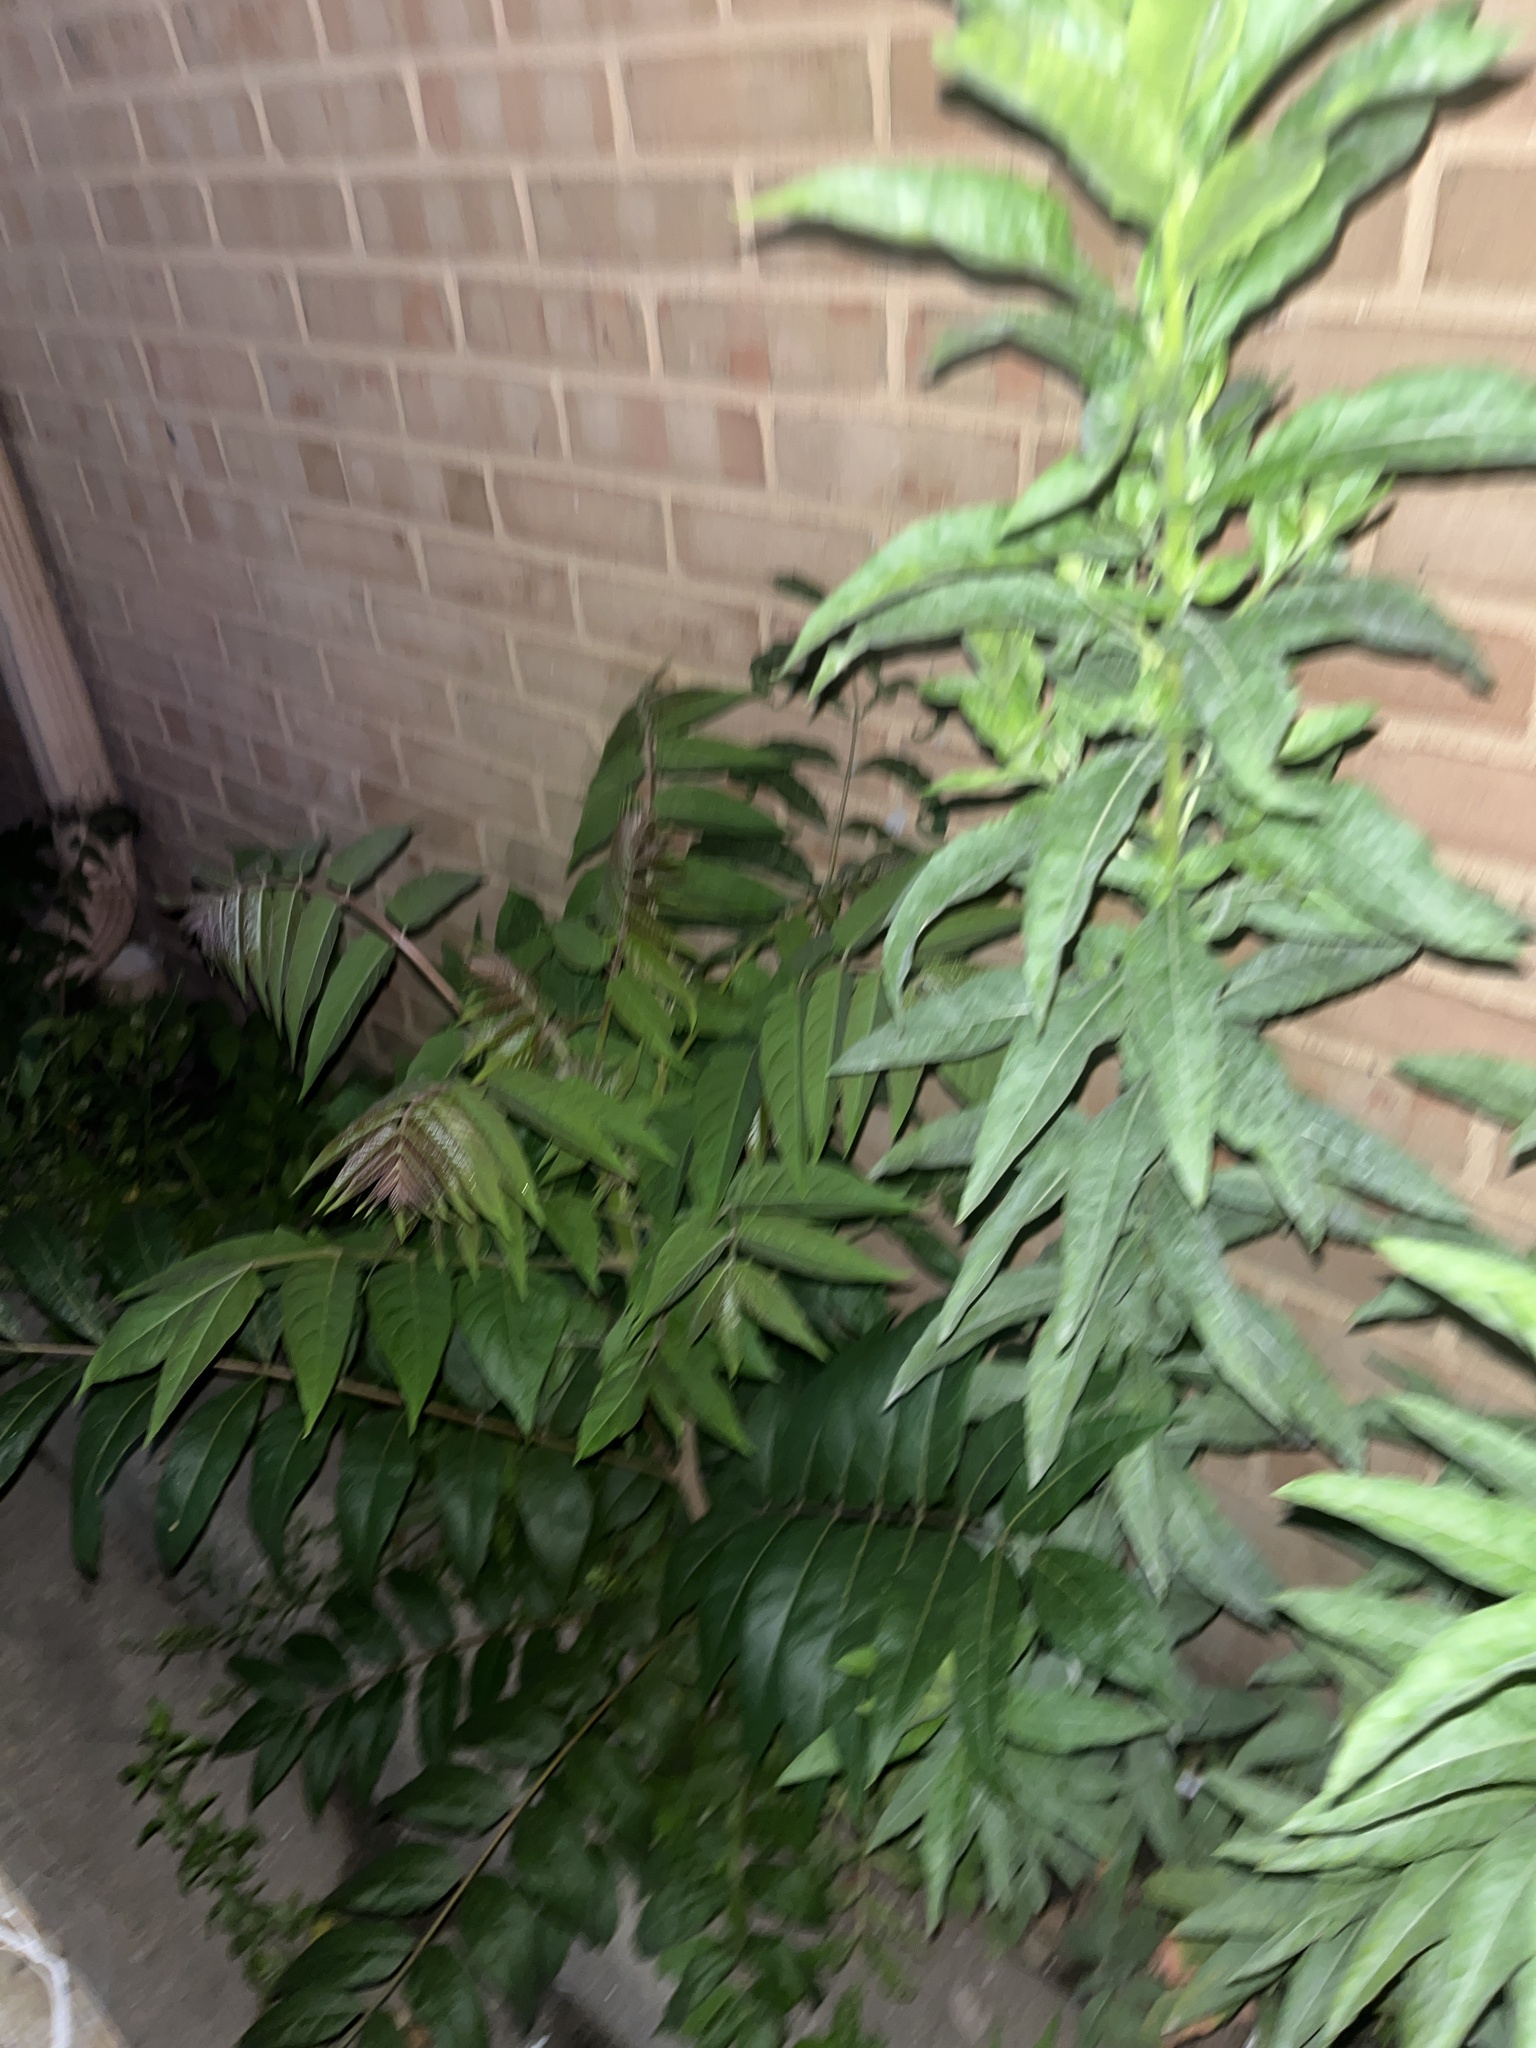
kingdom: Plantae
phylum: Tracheophyta
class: Magnoliopsida
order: Sapindales
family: Simaroubaceae
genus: Ailanthus
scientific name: Ailanthus altissima
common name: Tree-of-heaven
